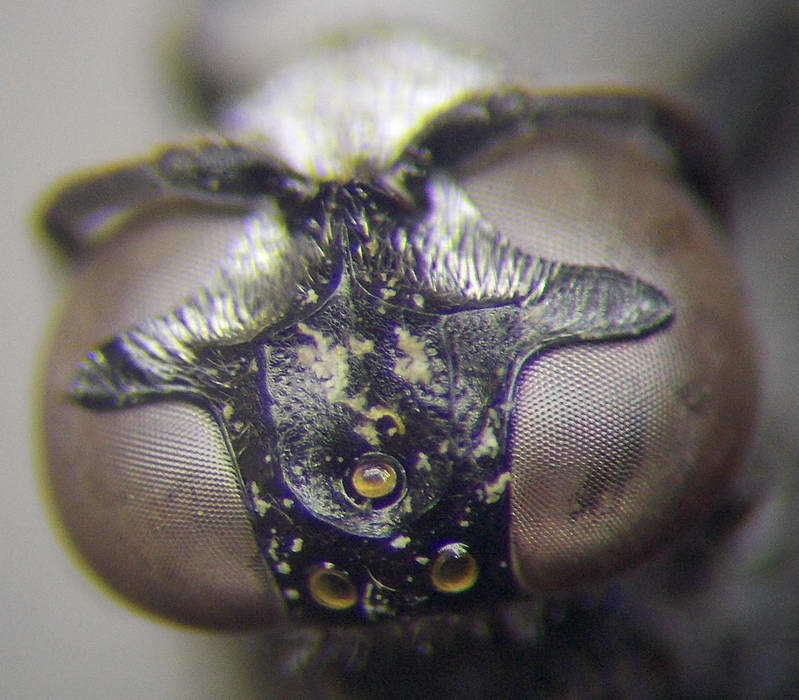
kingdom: Animalia
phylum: Arthropoda
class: Insecta
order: Hymenoptera
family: Crabronidae
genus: Trypoxylon
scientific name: Trypoxylon scutatum
